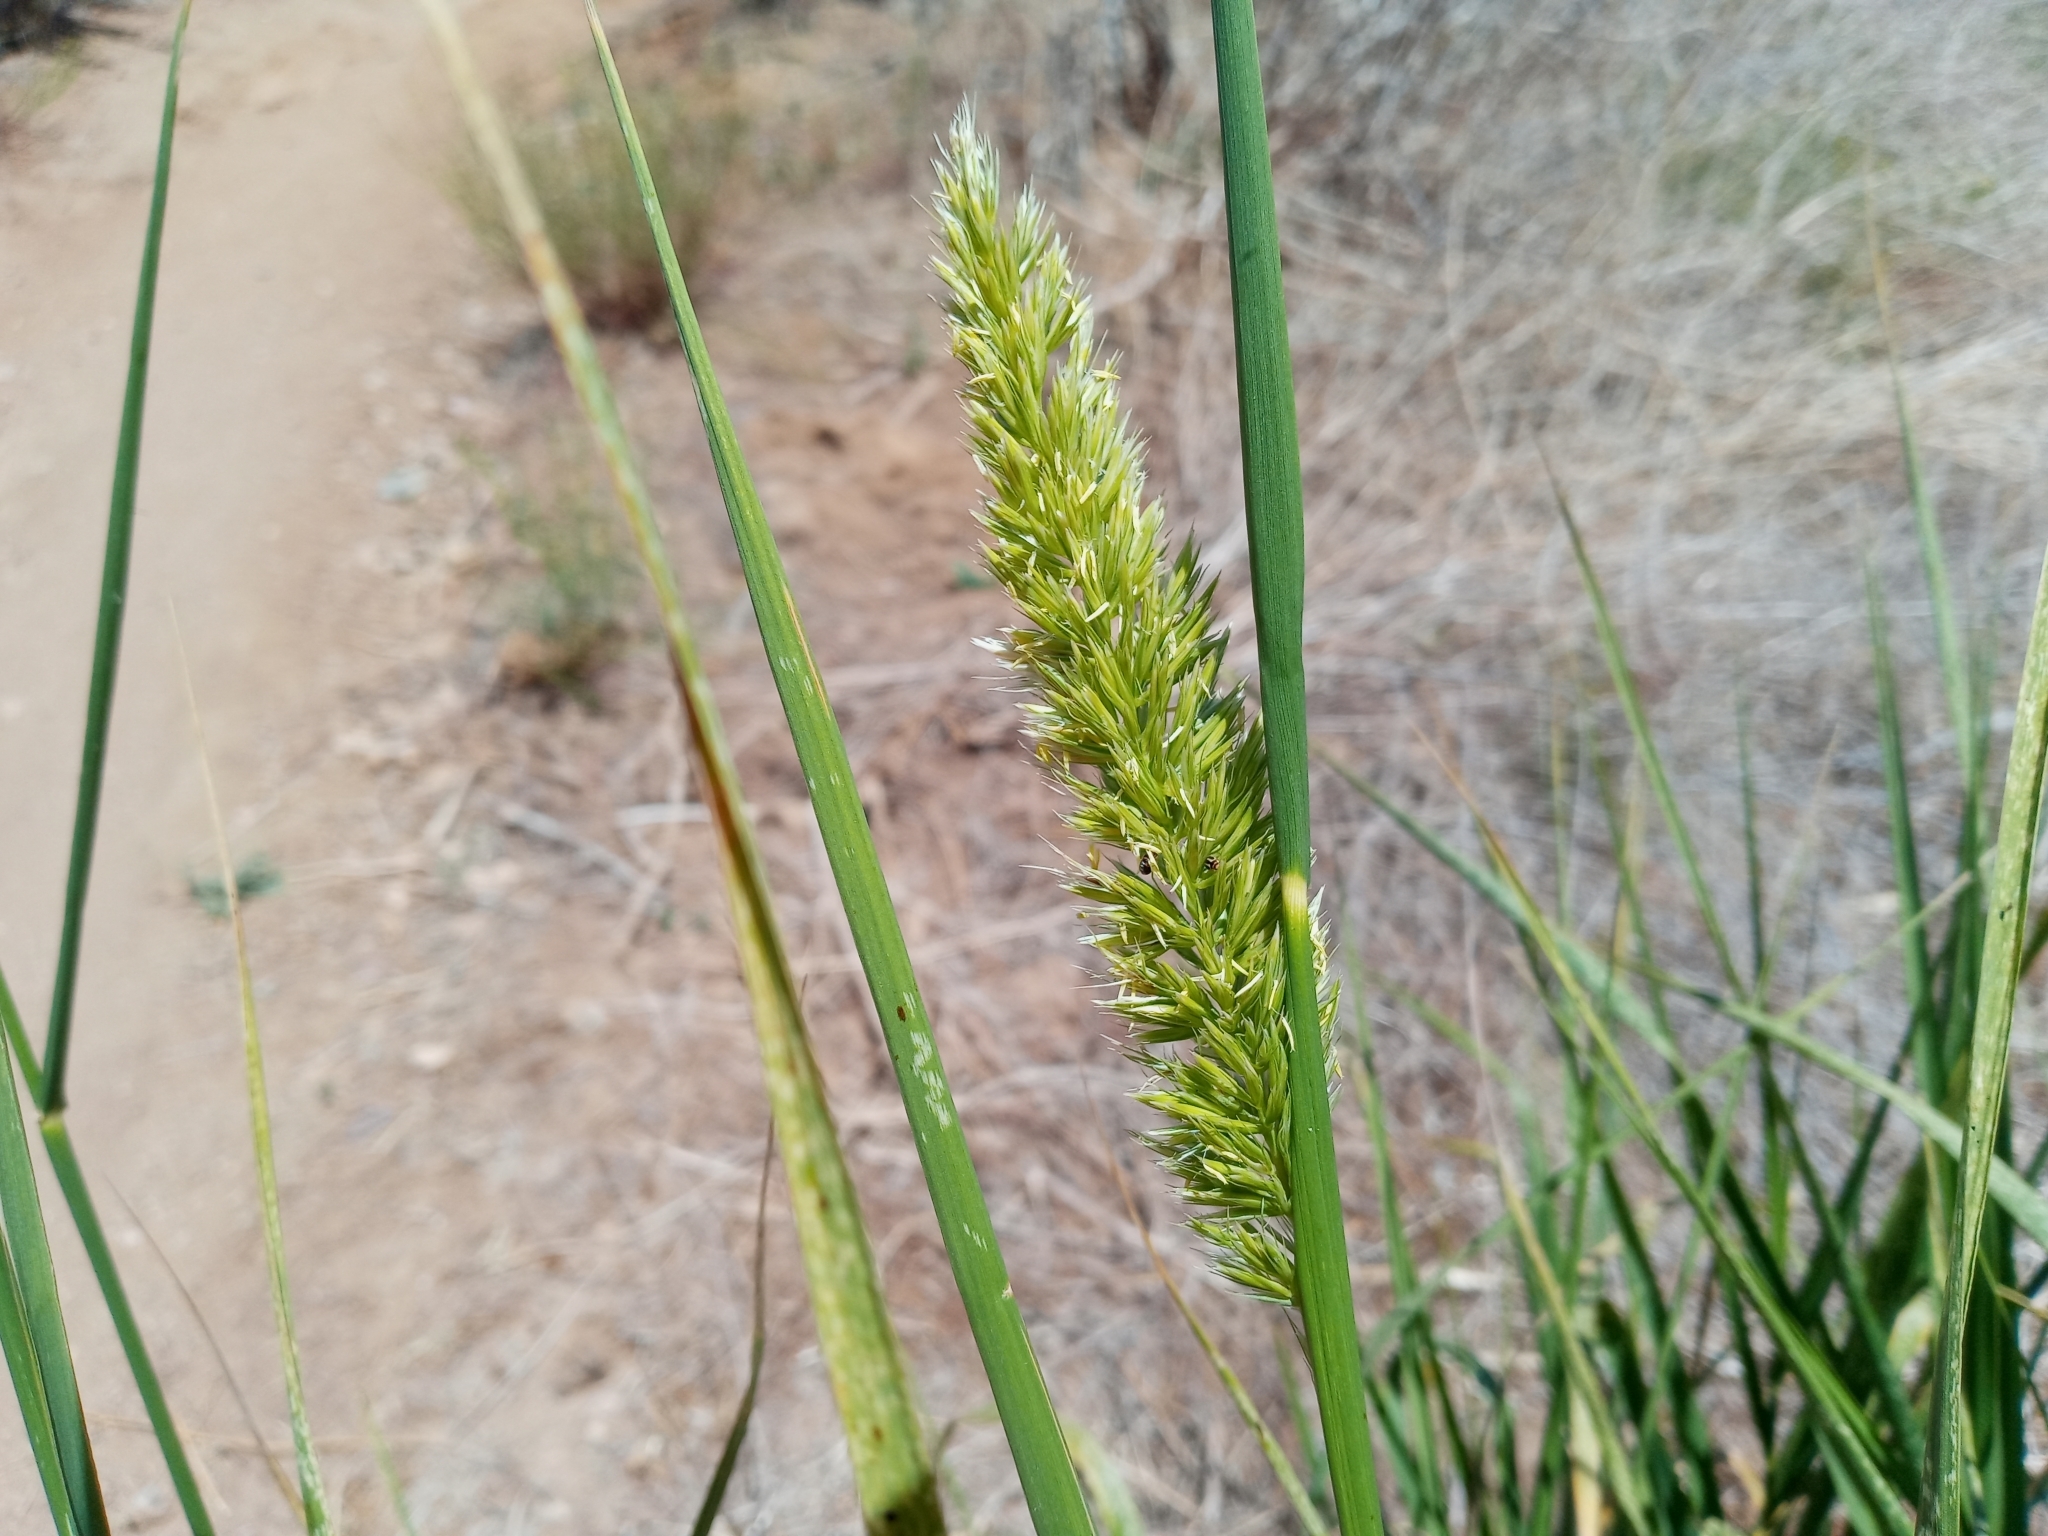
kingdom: Plantae
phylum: Tracheophyta
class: Liliopsida
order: Poales
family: Poaceae
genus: Leymus
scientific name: Leymus condensatus
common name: Giant wild rye
